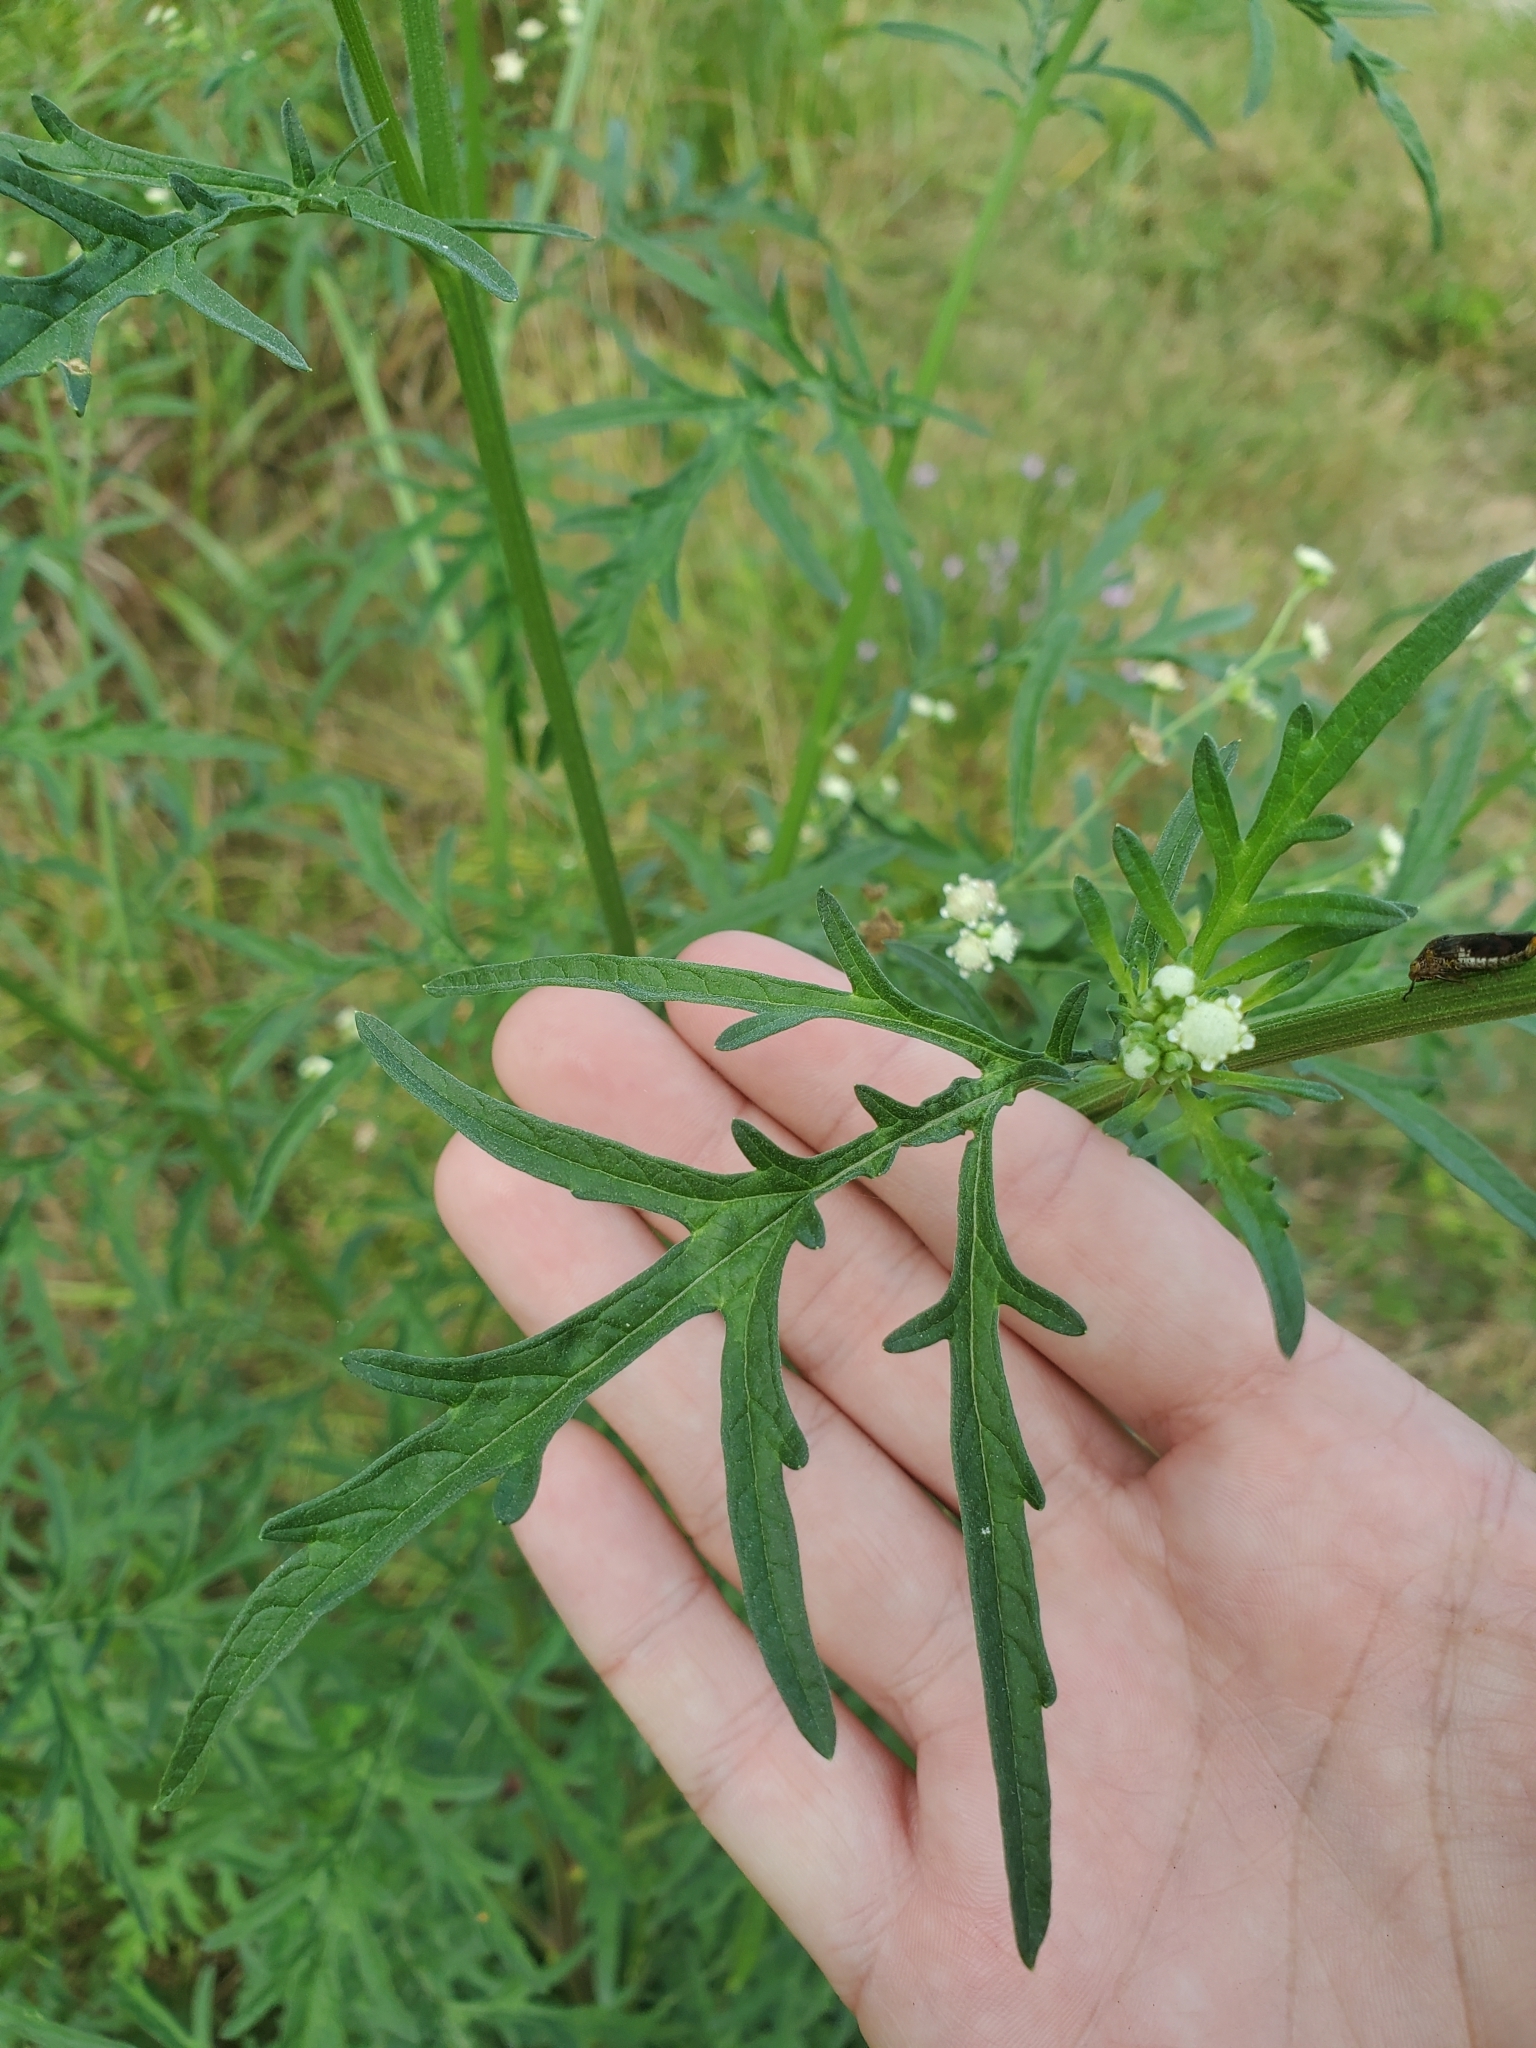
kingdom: Plantae
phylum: Tracheophyta
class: Magnoliopsida
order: Asterales
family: Asteraceae
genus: Parthenium
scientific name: Parthenium hysterophorus
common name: Santa maria feverfew
